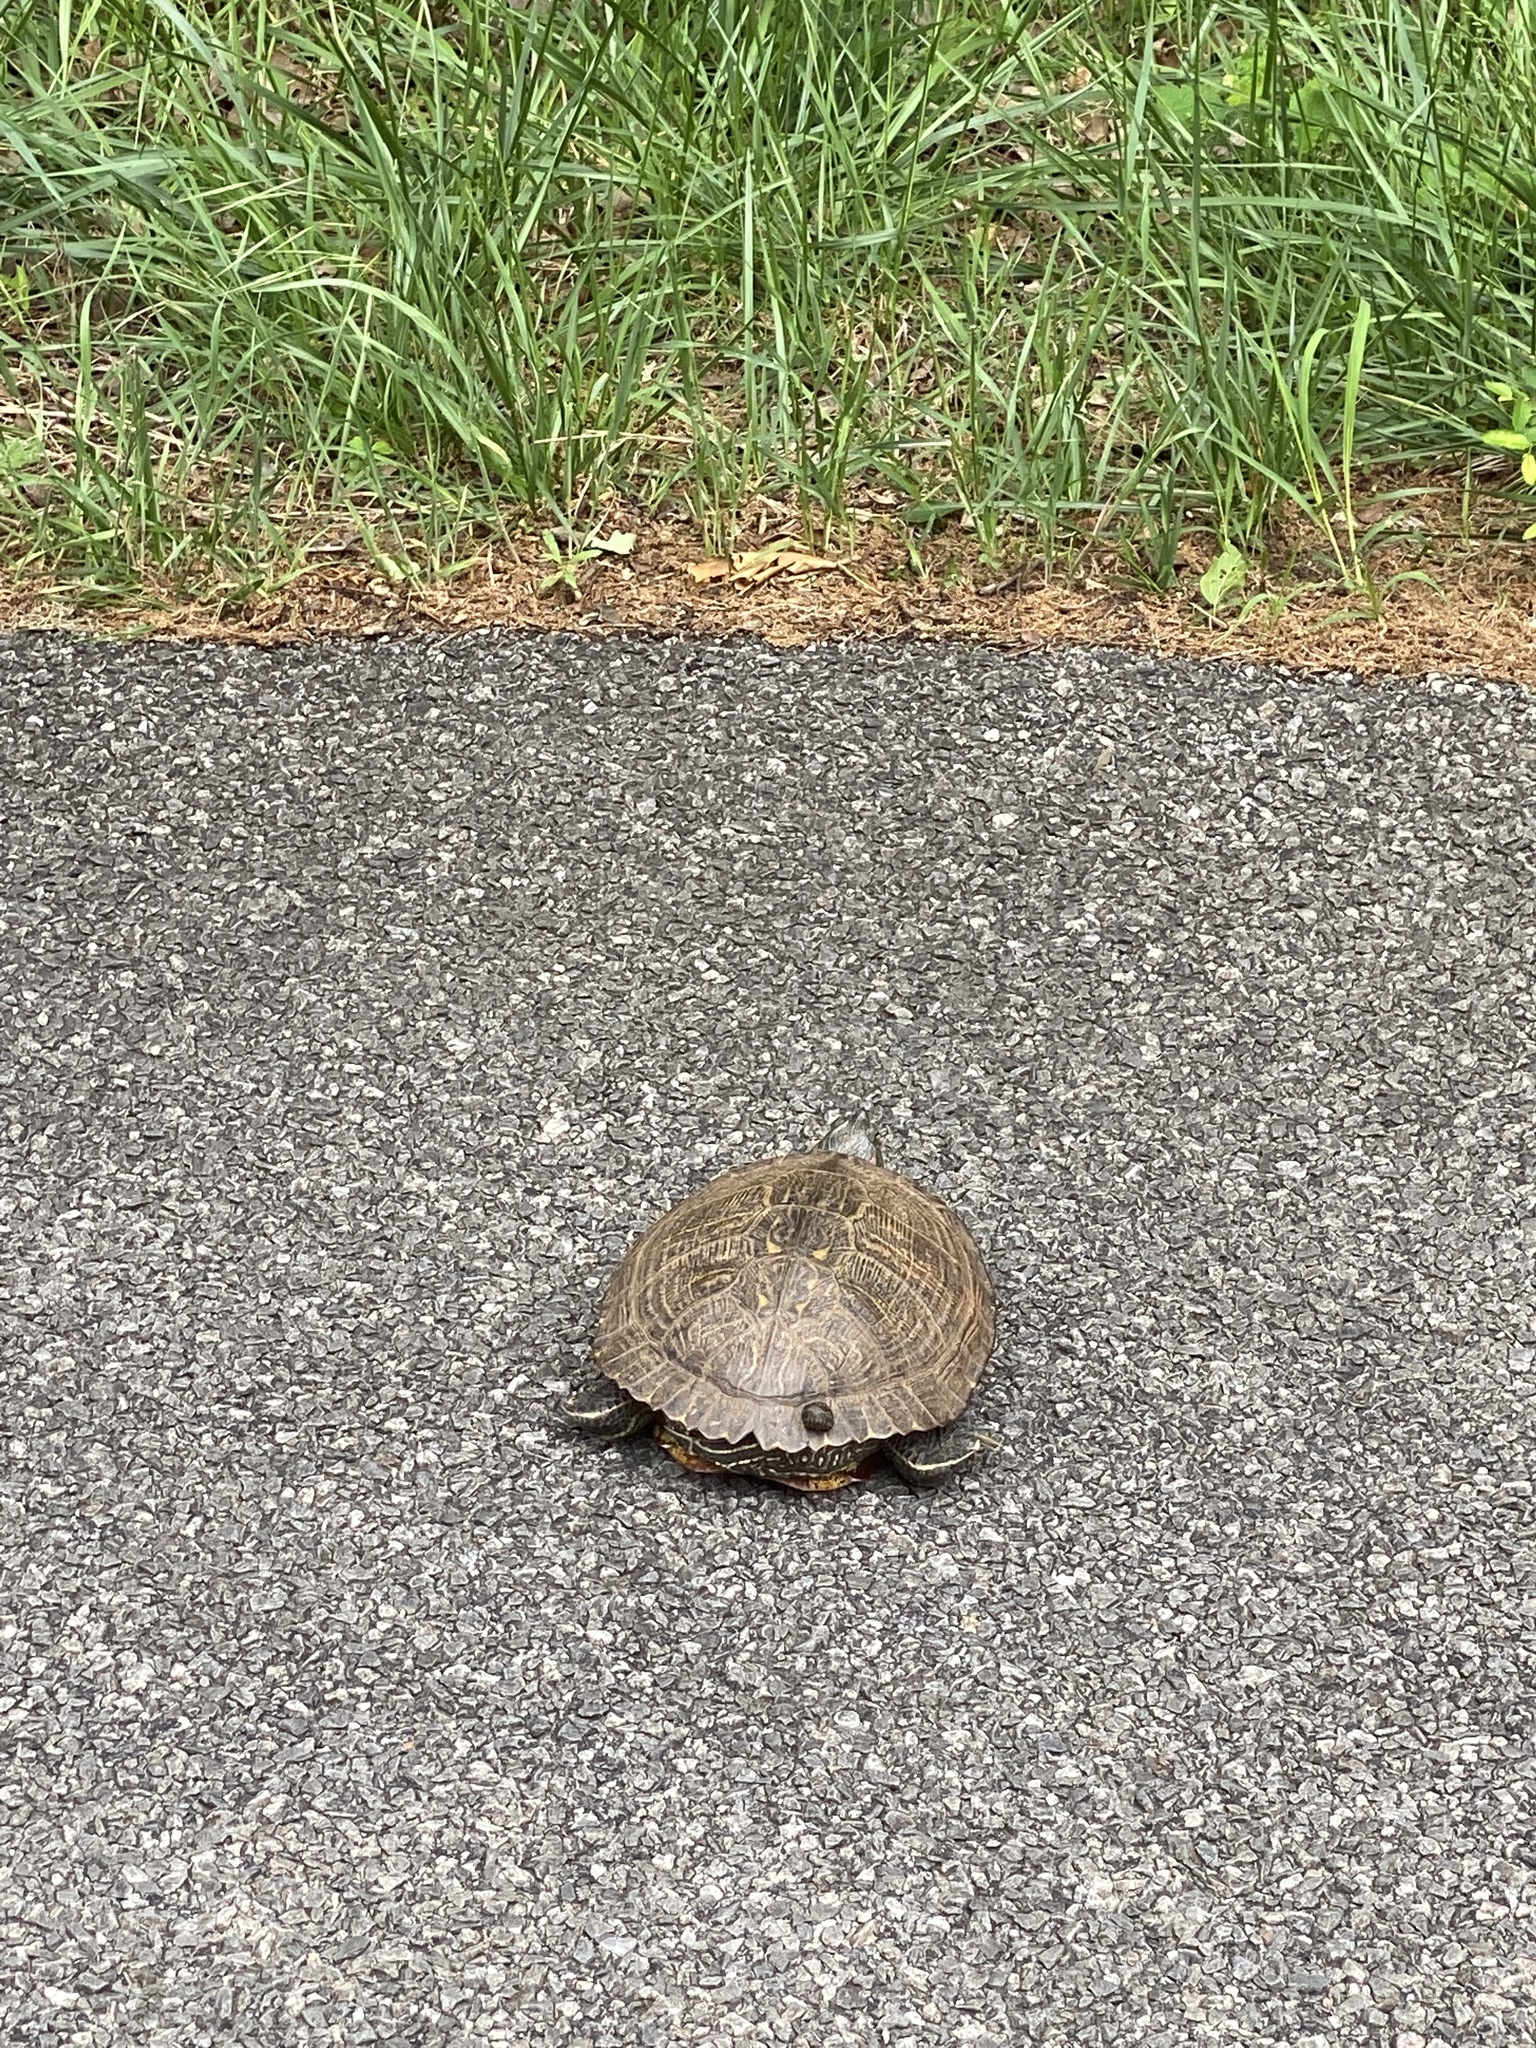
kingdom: Animalia
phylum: Chordata
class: Testudines
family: Emydidae
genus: Trachemys
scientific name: Trachemys scripta
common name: Slider
